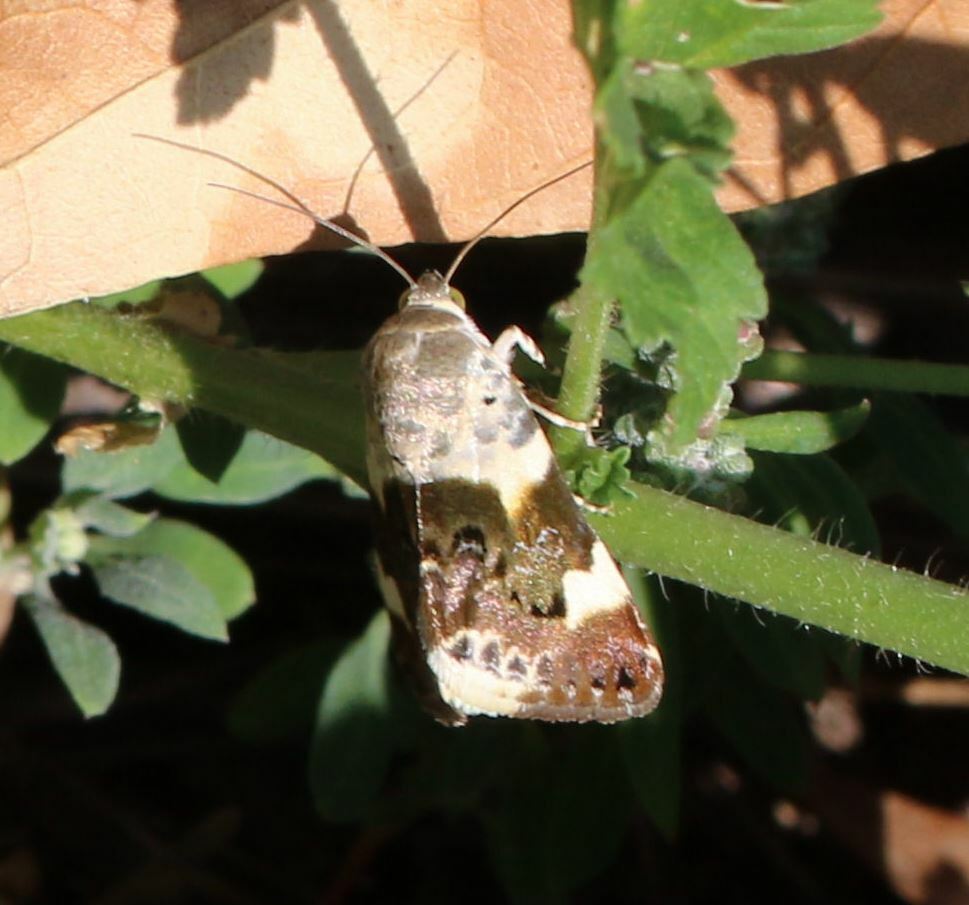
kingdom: Animalia
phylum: Arthropoda
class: Insecta
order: Lepidoptera
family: Noctuidae
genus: Acontia
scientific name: Acontia lucida
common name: Pale shoulder
